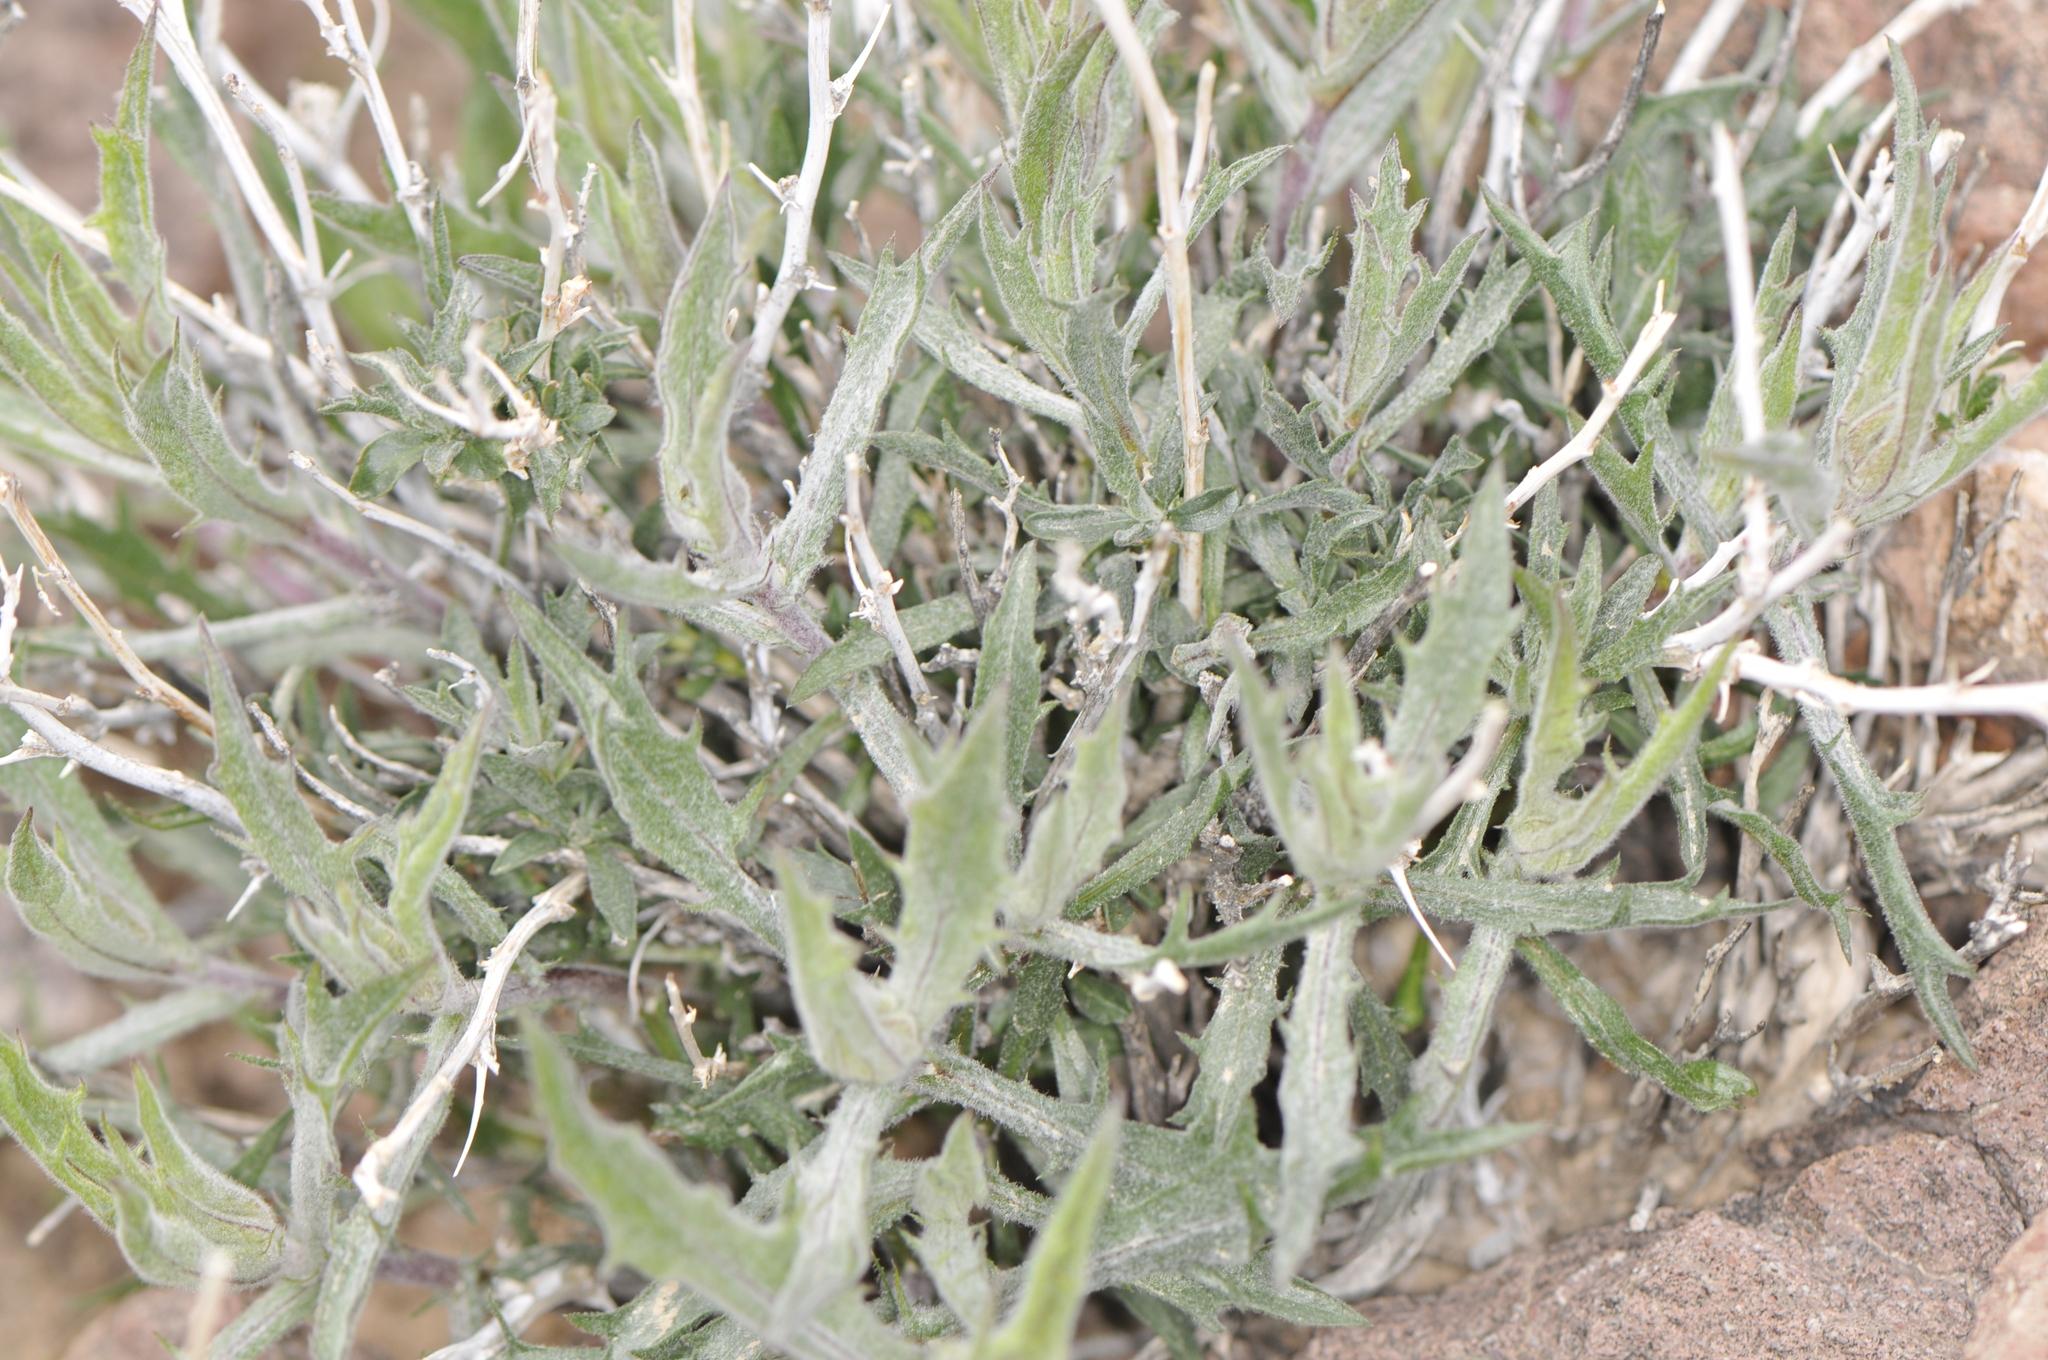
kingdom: Plantae
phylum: Tracheophyta
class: Magnoliopsida
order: Asterales
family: Asteraceae
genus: Xylorhiza
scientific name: Xylorhiza tortifolia
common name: Hurt-leaf woody-aster
